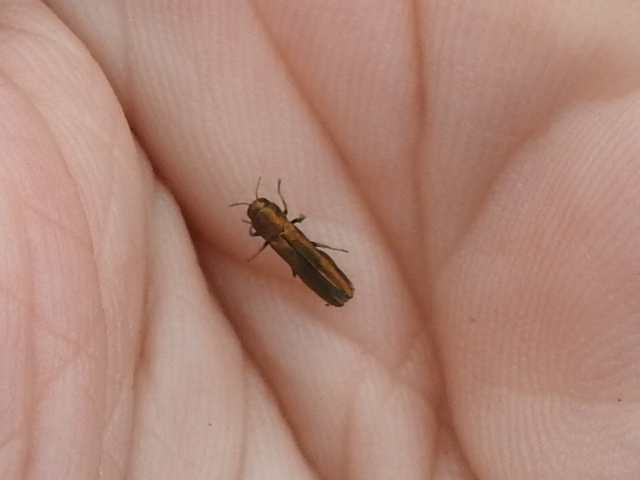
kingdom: Animalia
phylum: Arthropoda
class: Insecta
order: Coleoptera
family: Buprestidae
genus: Agrilus
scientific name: Agrilus lacustris
